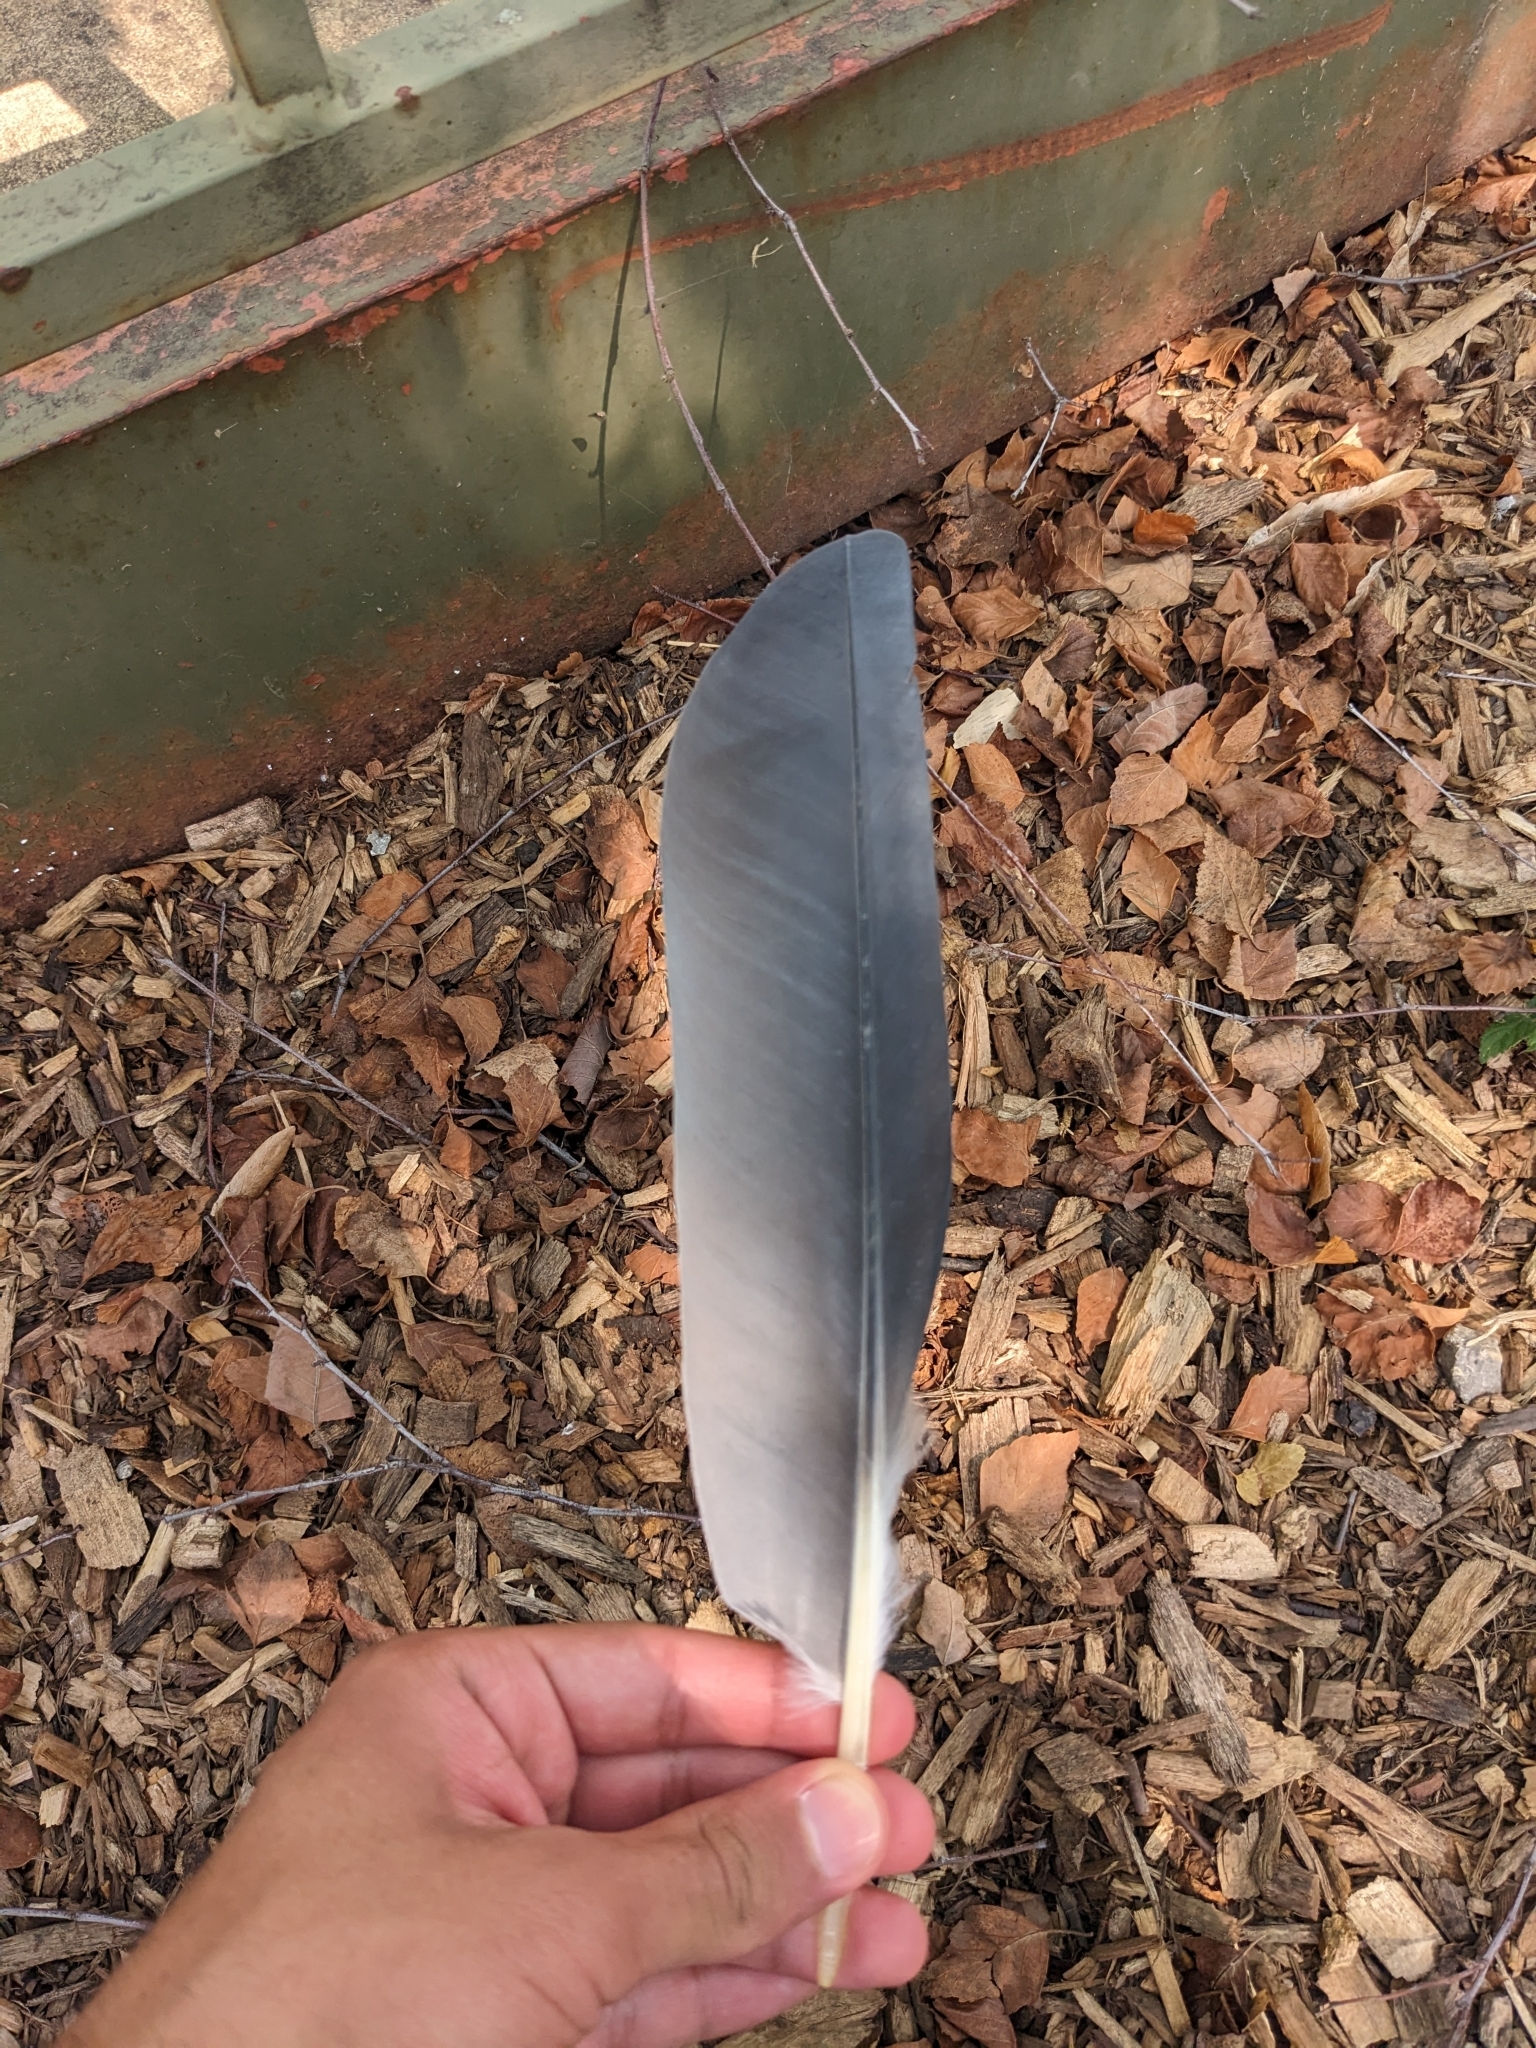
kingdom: Animalia
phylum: Chordata
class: Aves
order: Pelecaniformes
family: Ardeidae
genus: Ardea
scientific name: Ardea herodias
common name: Great blue heron
